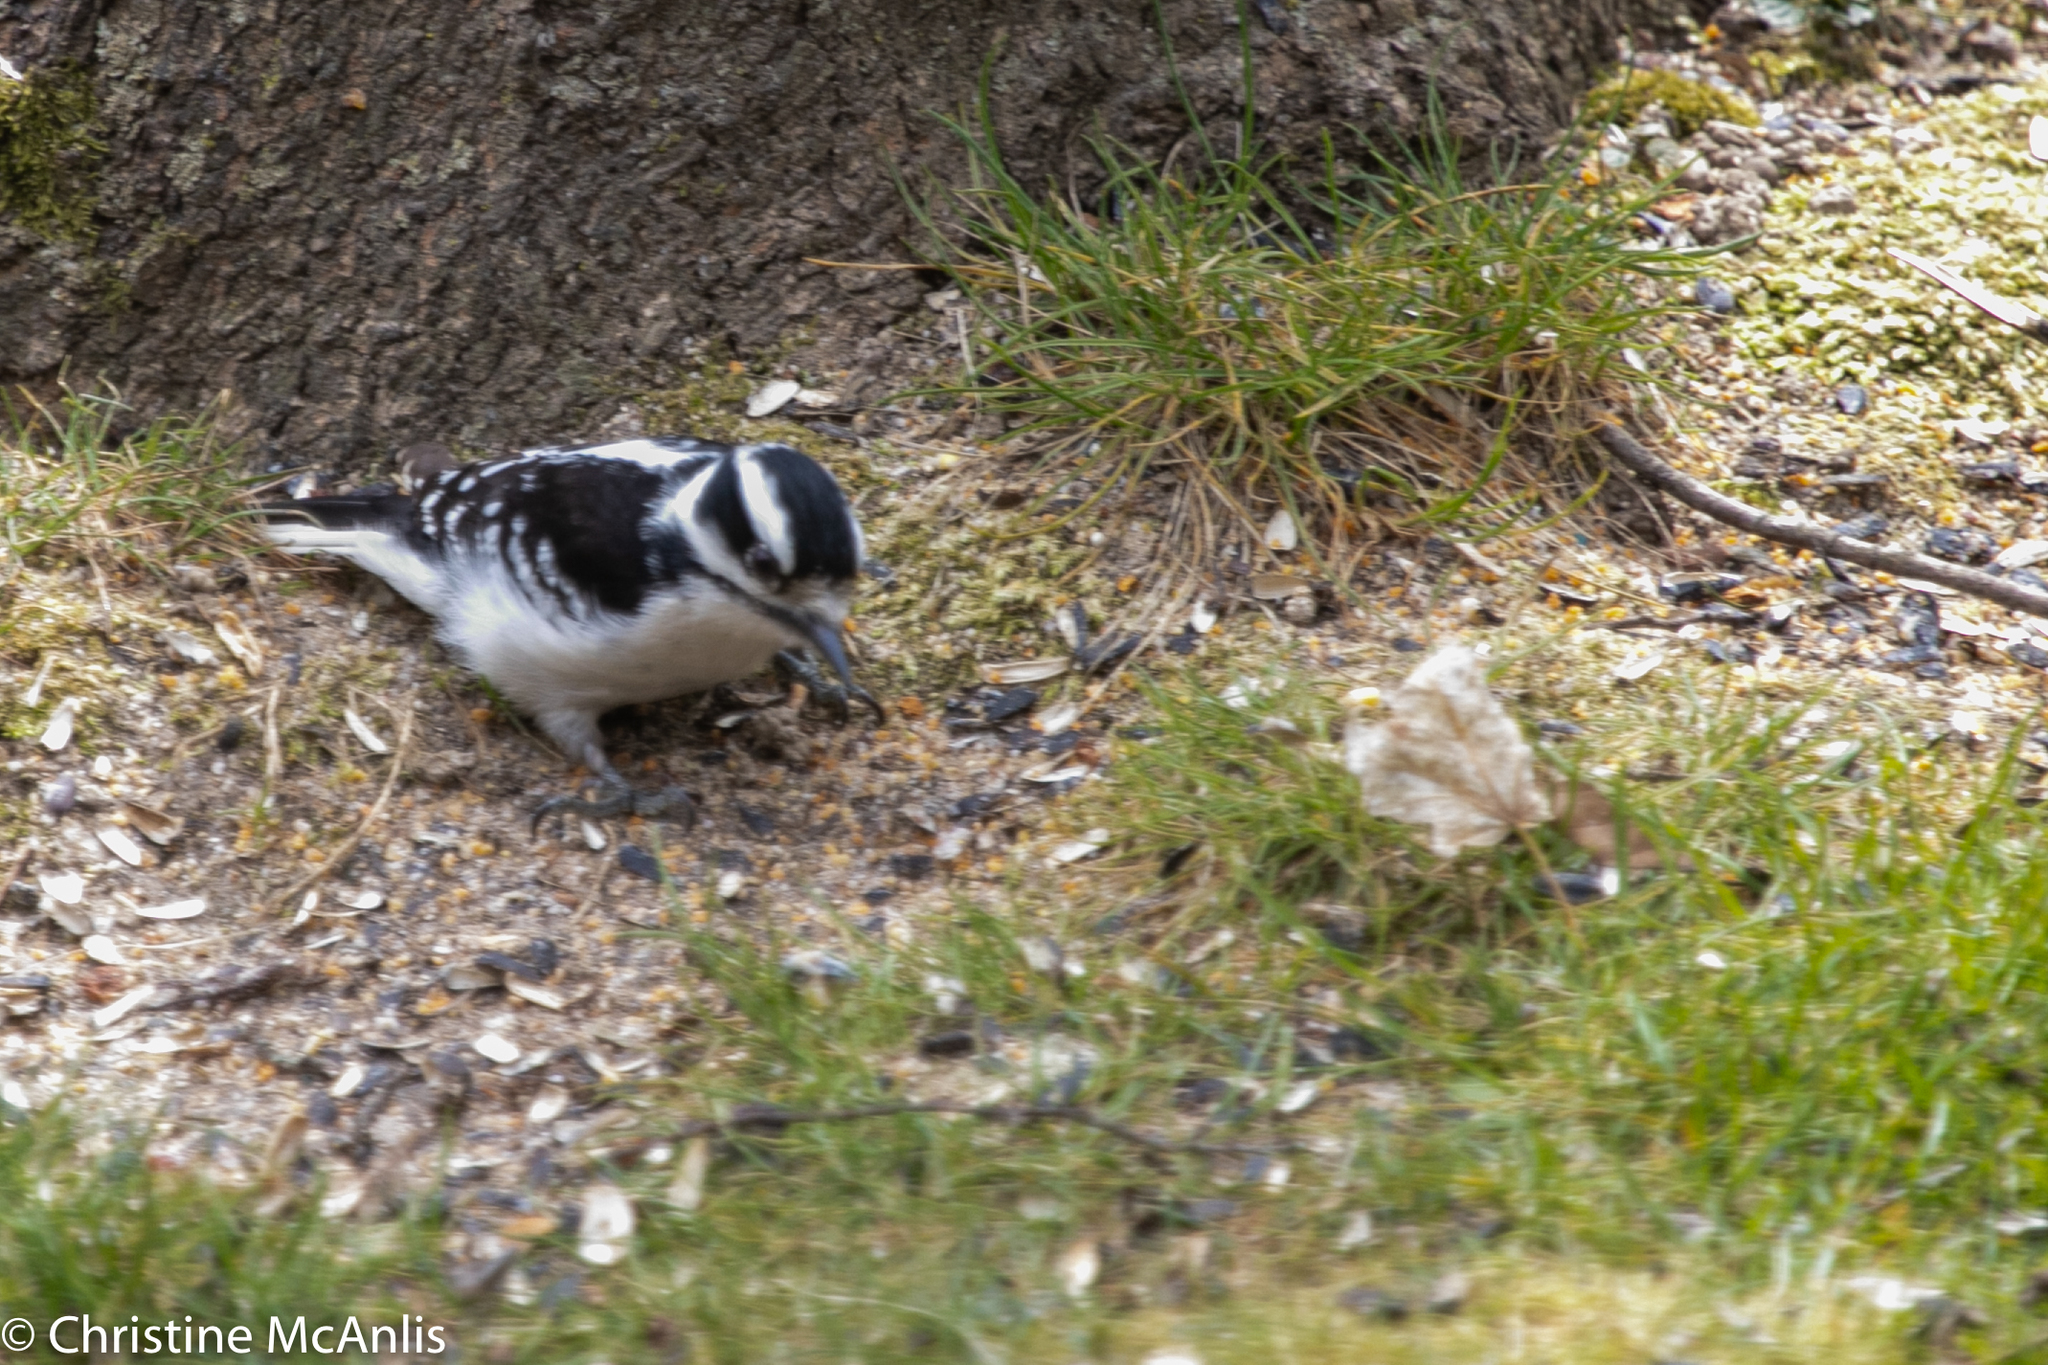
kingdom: Animalia
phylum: Chordata
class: Aves
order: Piciformes
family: Picidae
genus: Dryobates
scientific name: Dryobates pubescens
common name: Downy woodpecker
